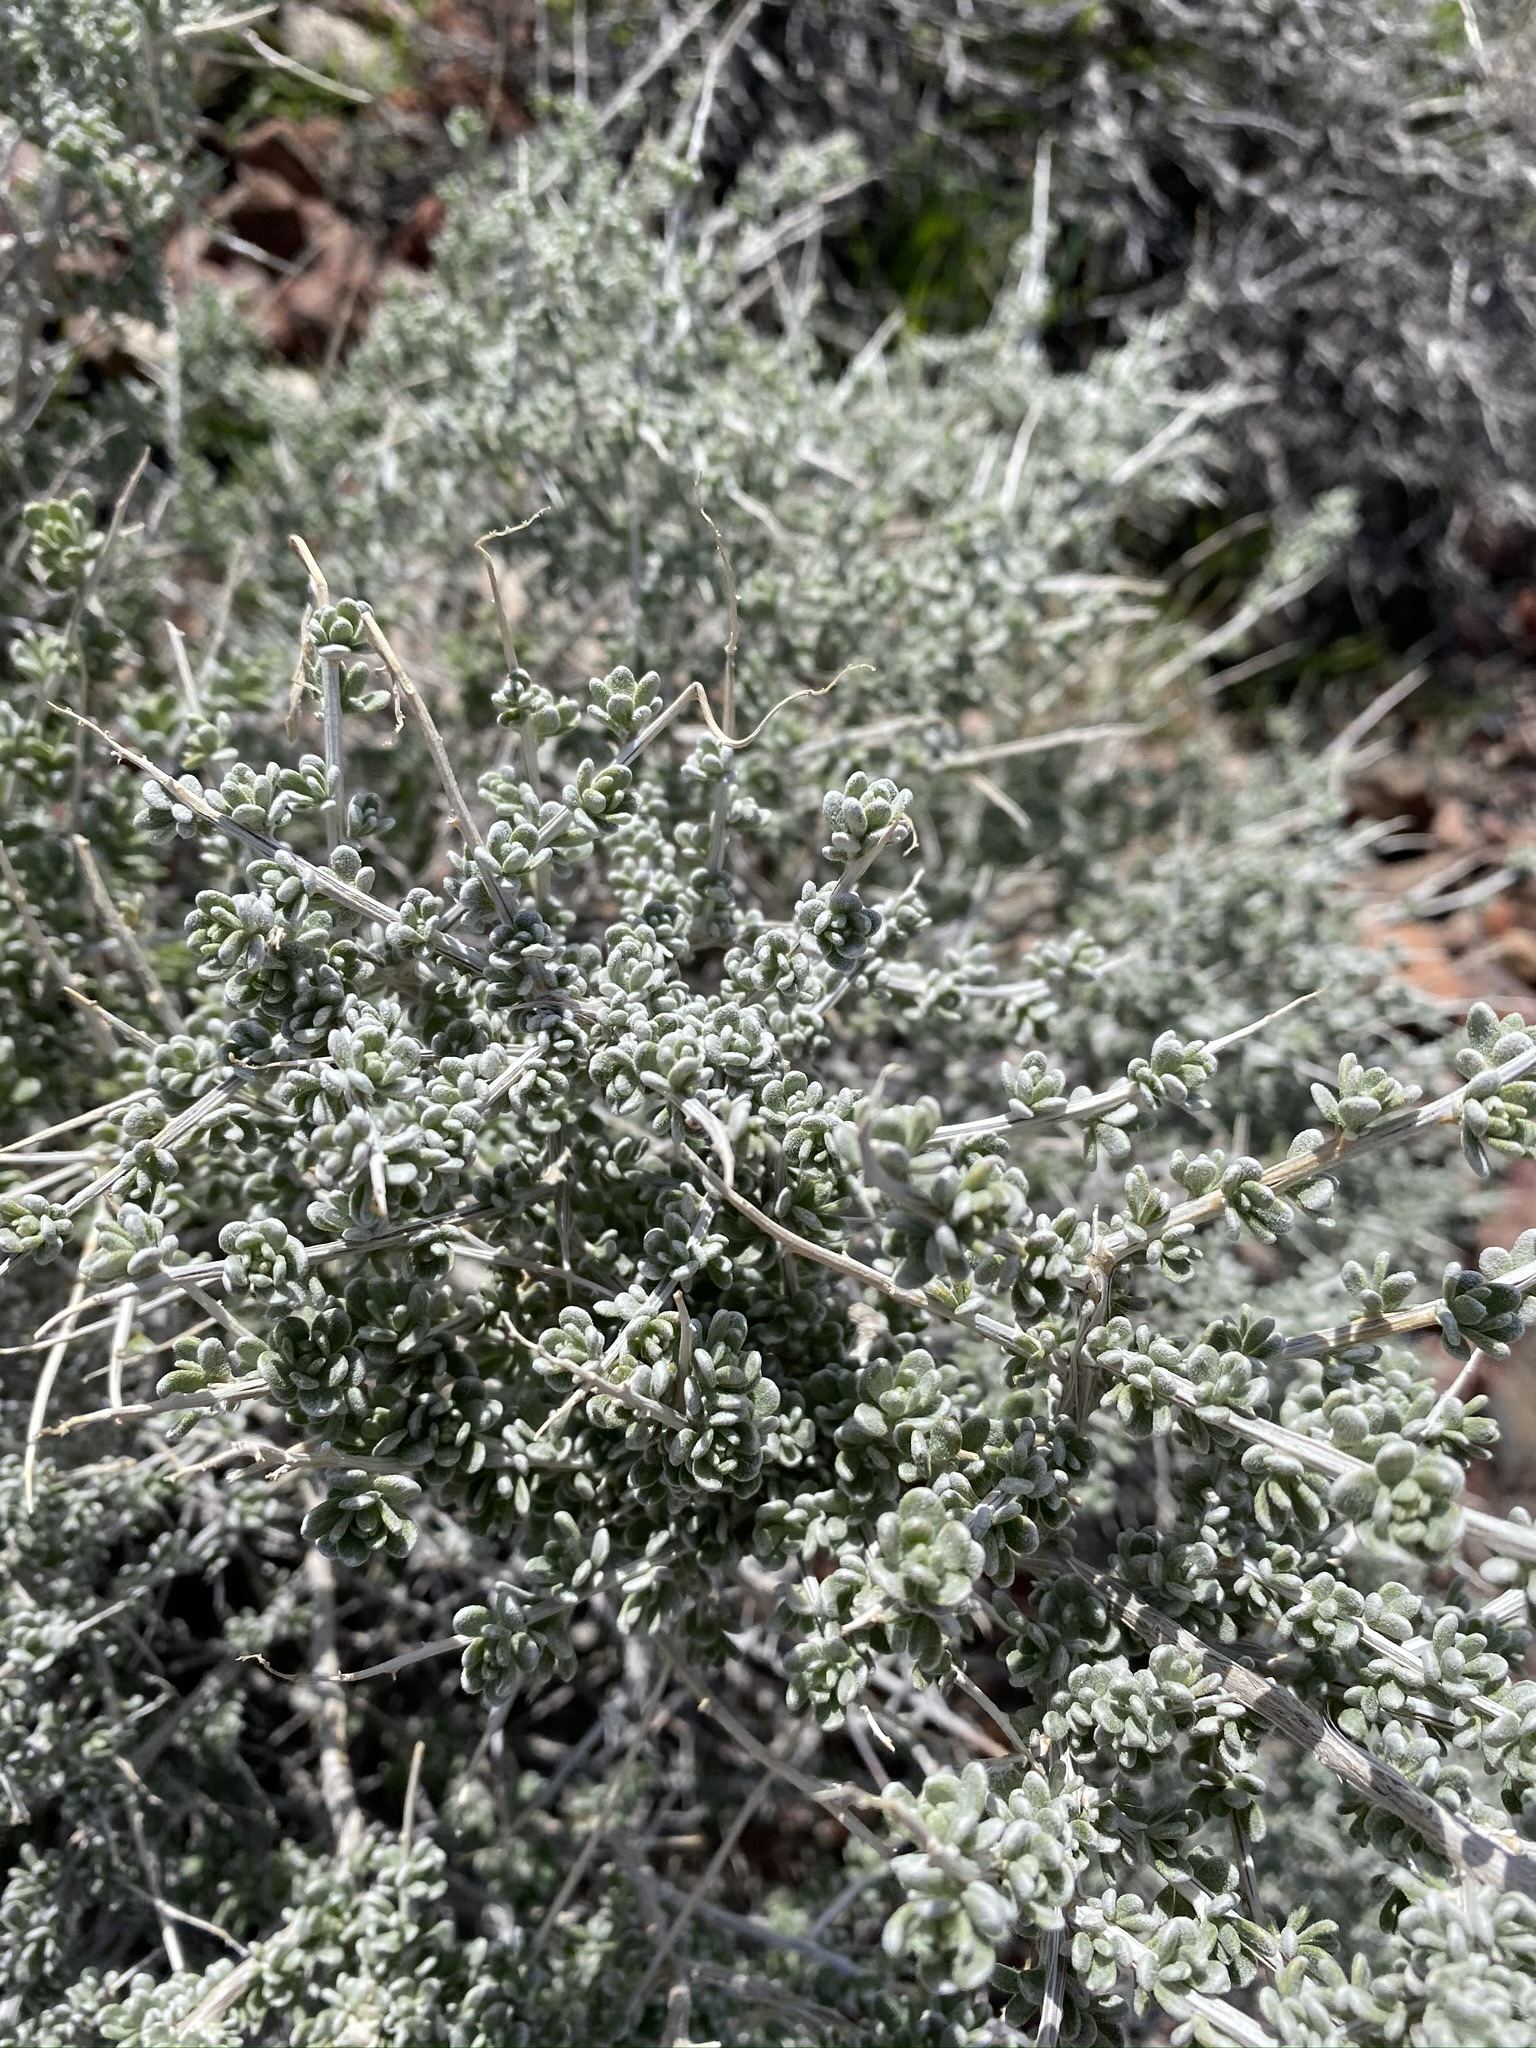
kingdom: Plantae
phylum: Tracheophyta
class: Magnoliopsida
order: Caryophyllales
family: Amaranthaceae
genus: Grayia
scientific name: Grayia spinosa
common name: Spiny hopsage
